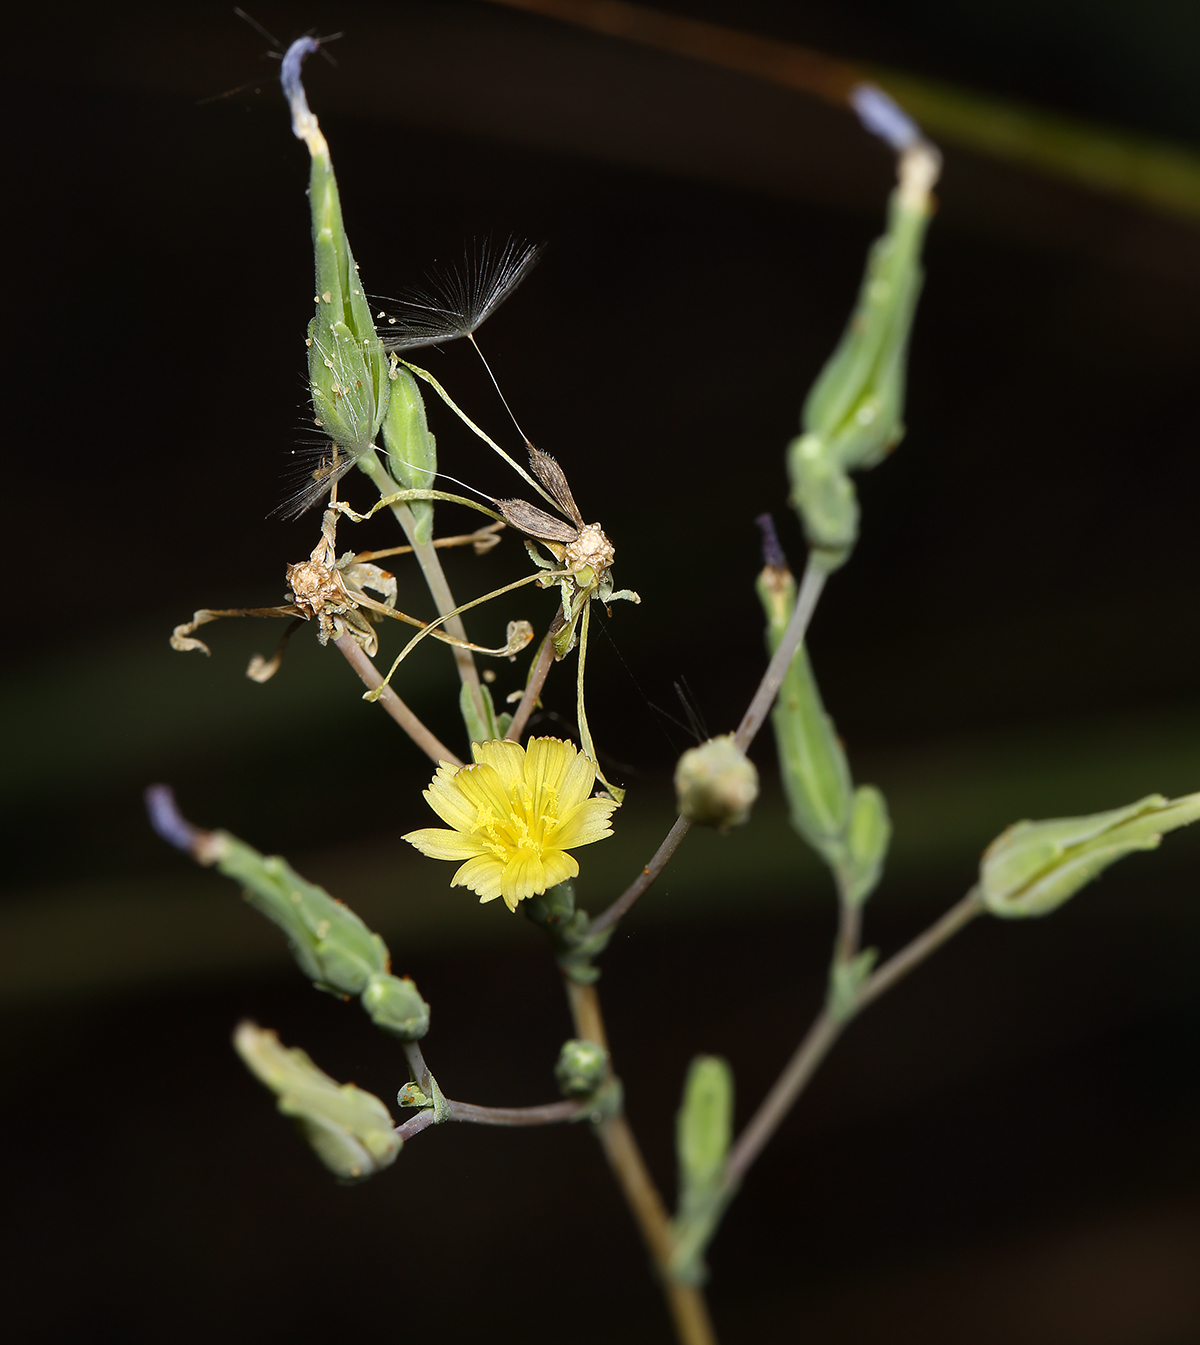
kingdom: Plantae
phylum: Tracheophyta
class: Magnoliopsida
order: Asterales
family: Asteraceae
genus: Lactuca
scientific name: Lactuca serriola
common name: Prickly lettuce
